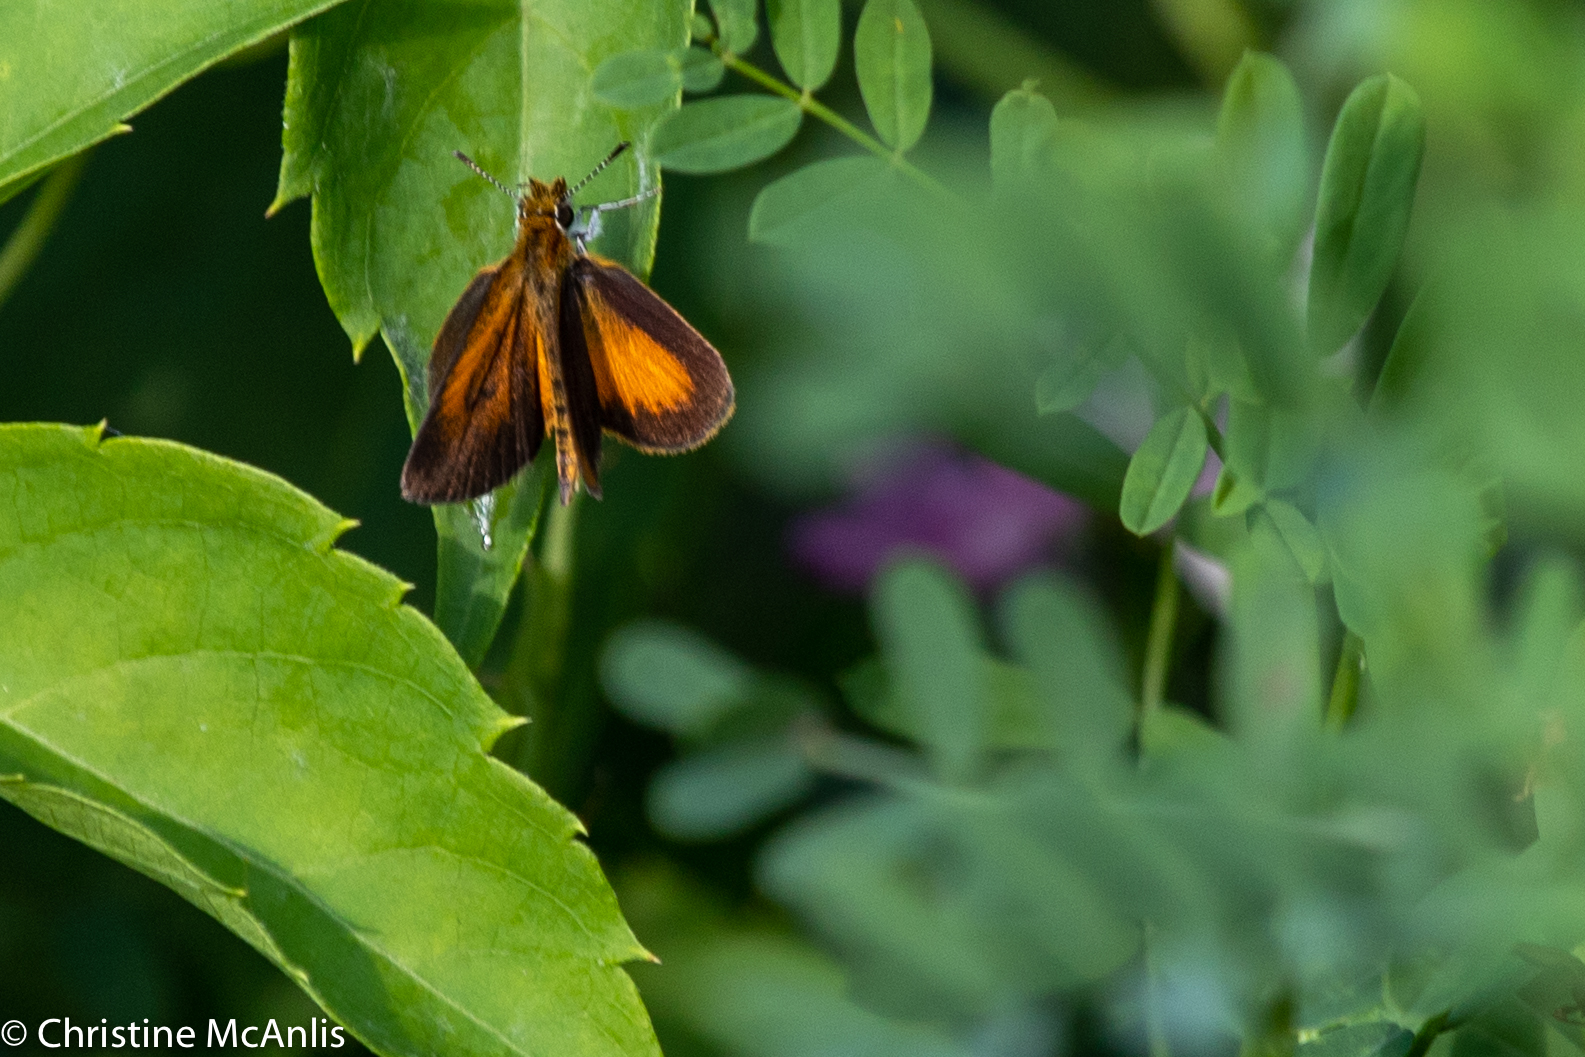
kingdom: Animalia
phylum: Arthropoda
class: Insecta
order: Lepidoptera
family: Hesperiidae
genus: Ancyloxypha
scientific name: Ancyloxypha numitor
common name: Least skipper
